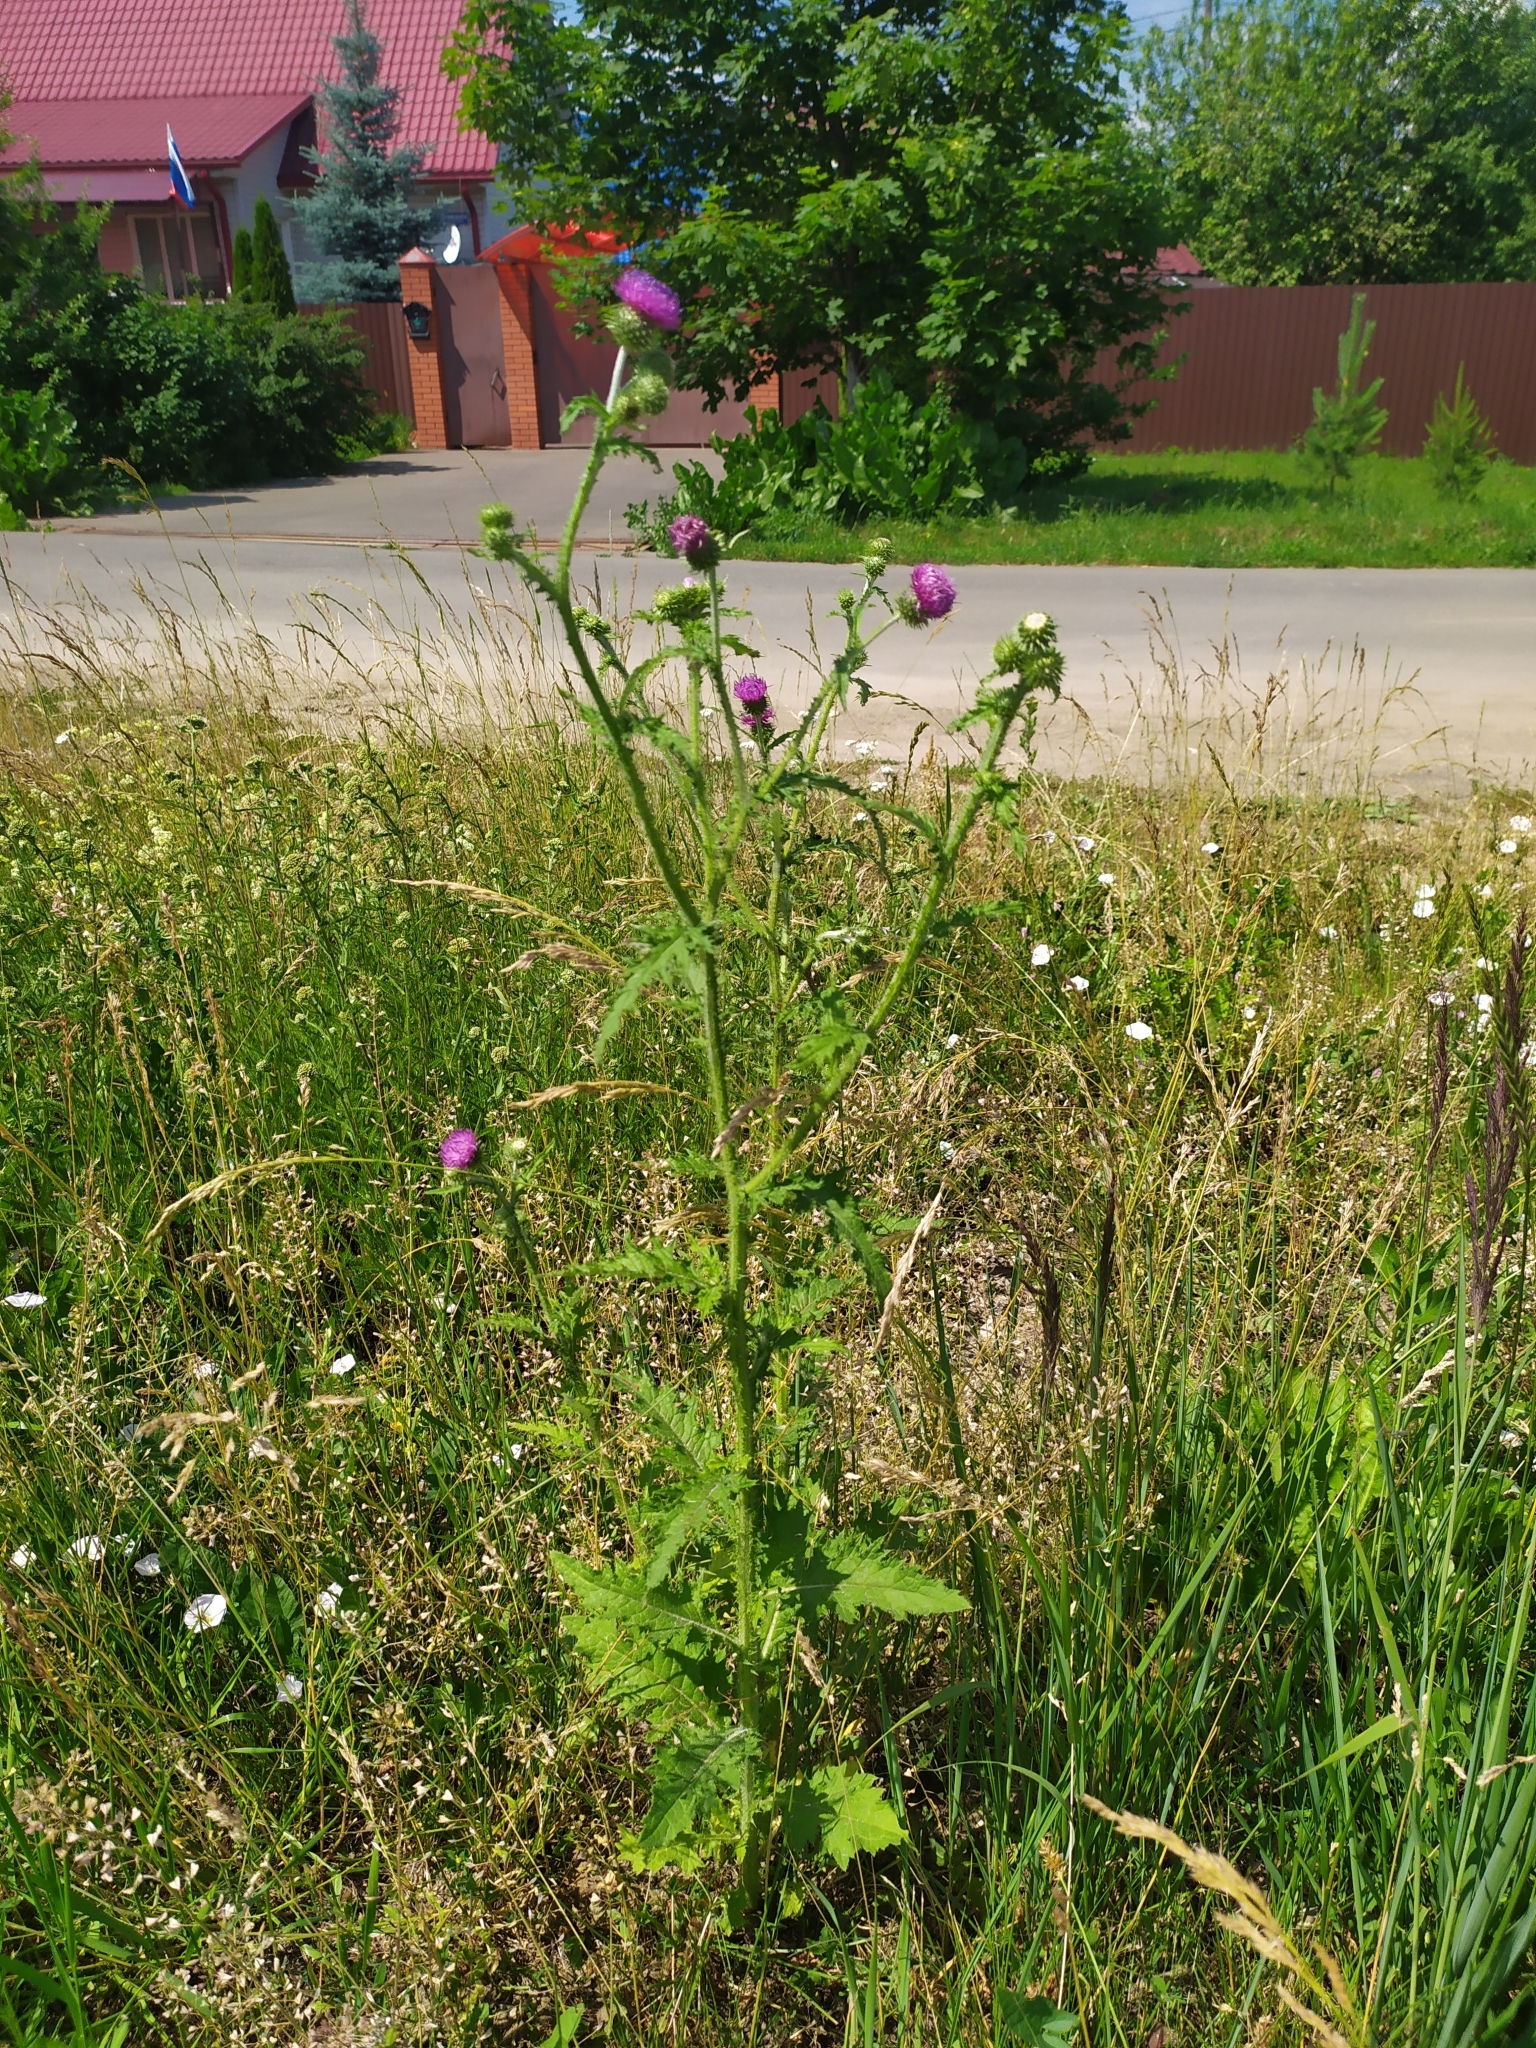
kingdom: Plantae
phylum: Tracheophyta
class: Magnoliopsida
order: Asterales
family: Asteraceae
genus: Carduus
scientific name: Carduus crispus
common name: Welted thistle
